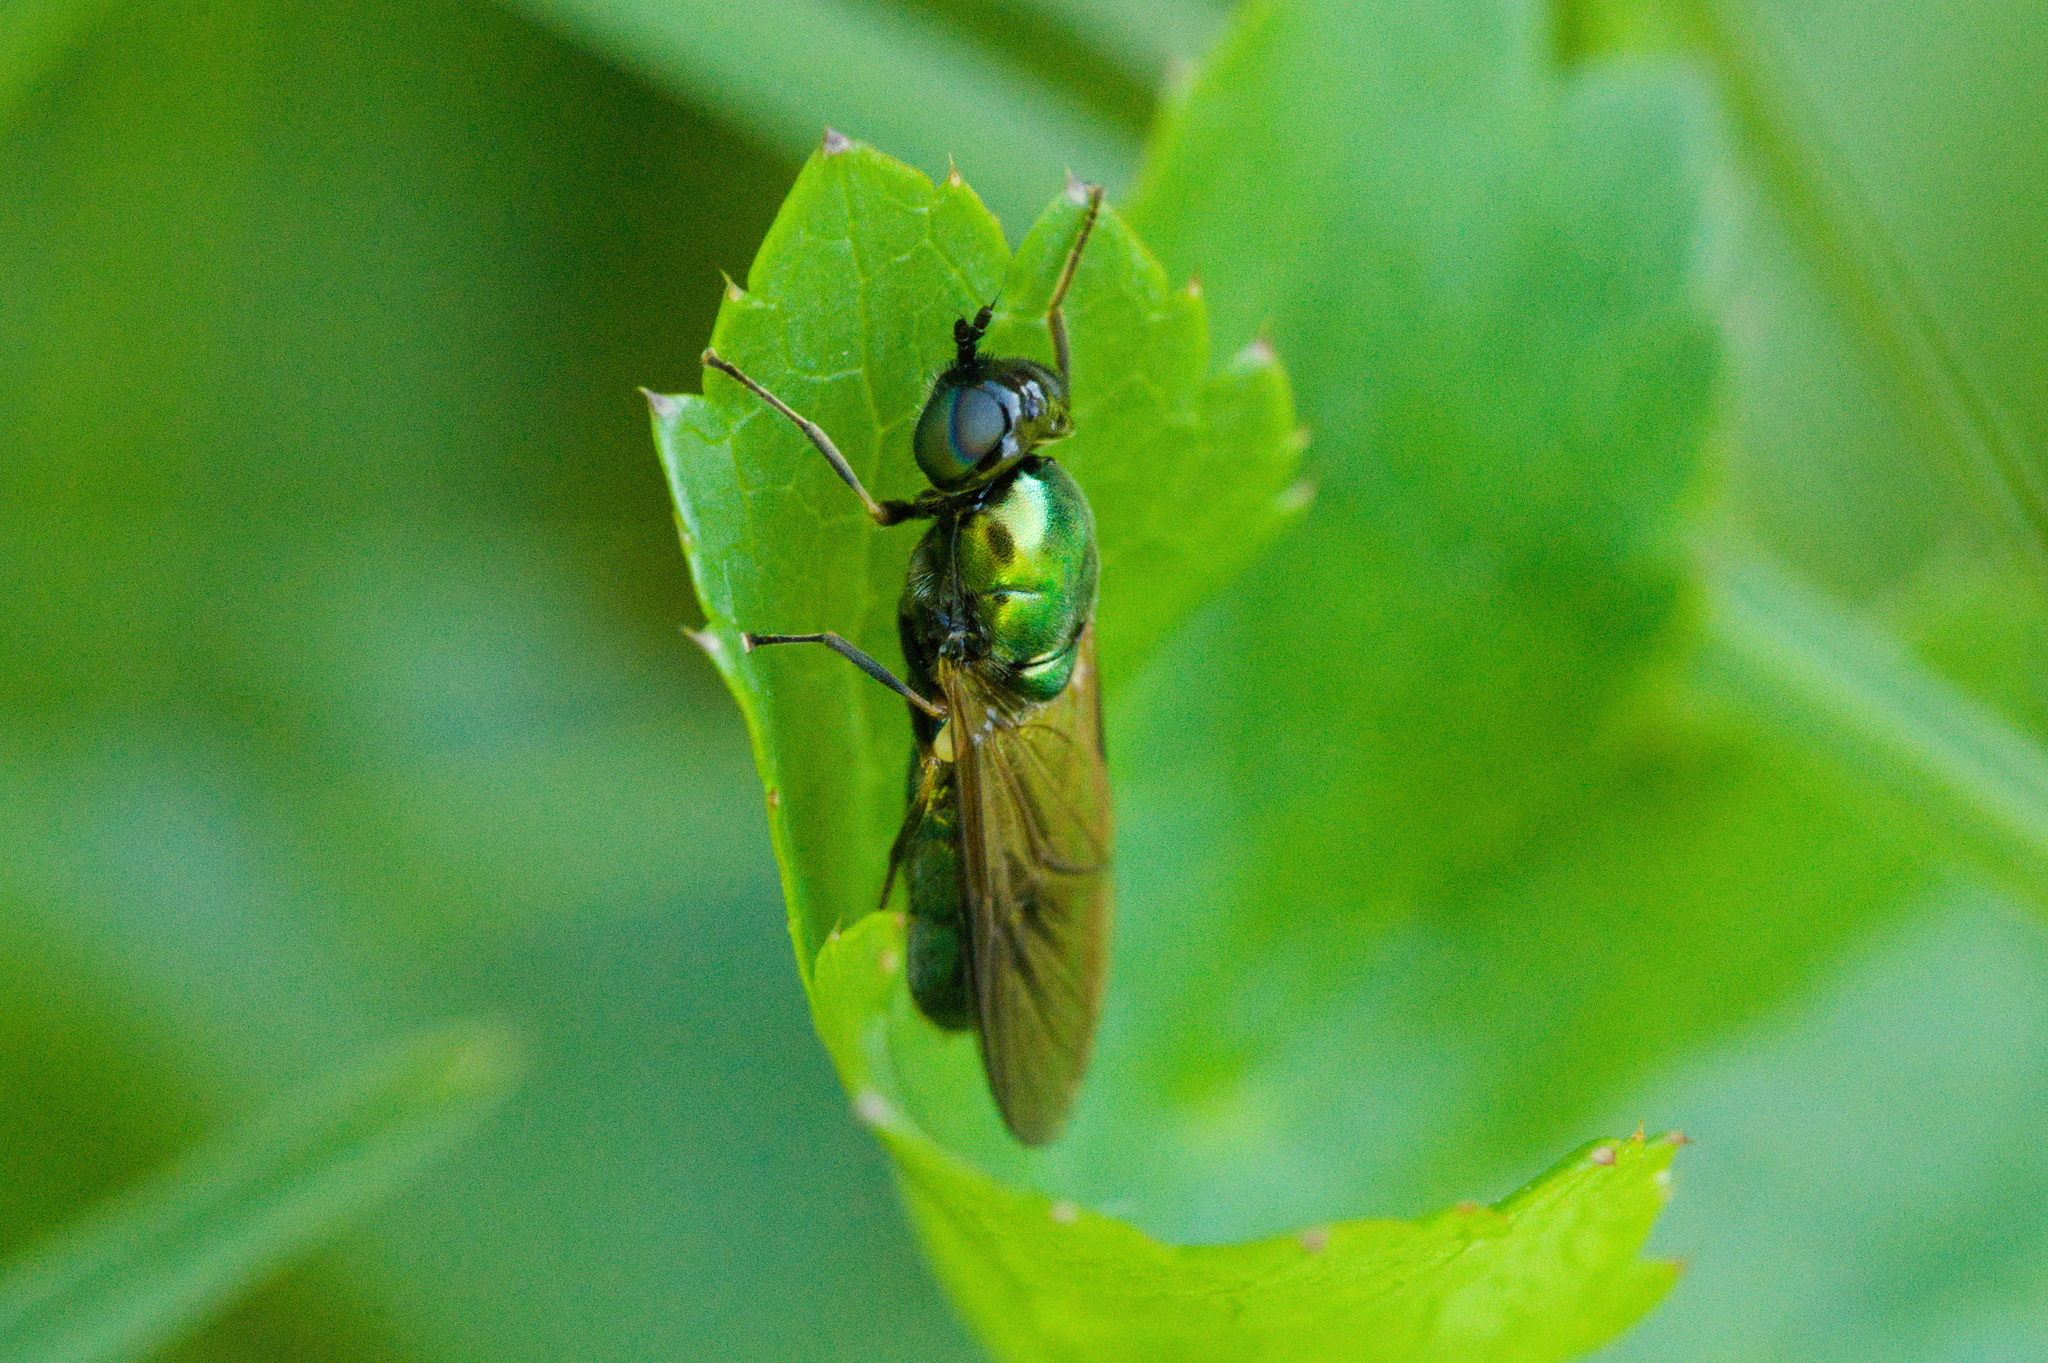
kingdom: Animalia
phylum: Arthropoda
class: Insecta
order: Diptera
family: Stratiomyidae
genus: Chloromyia
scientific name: Chloromyia formosa
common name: Soldier fly
